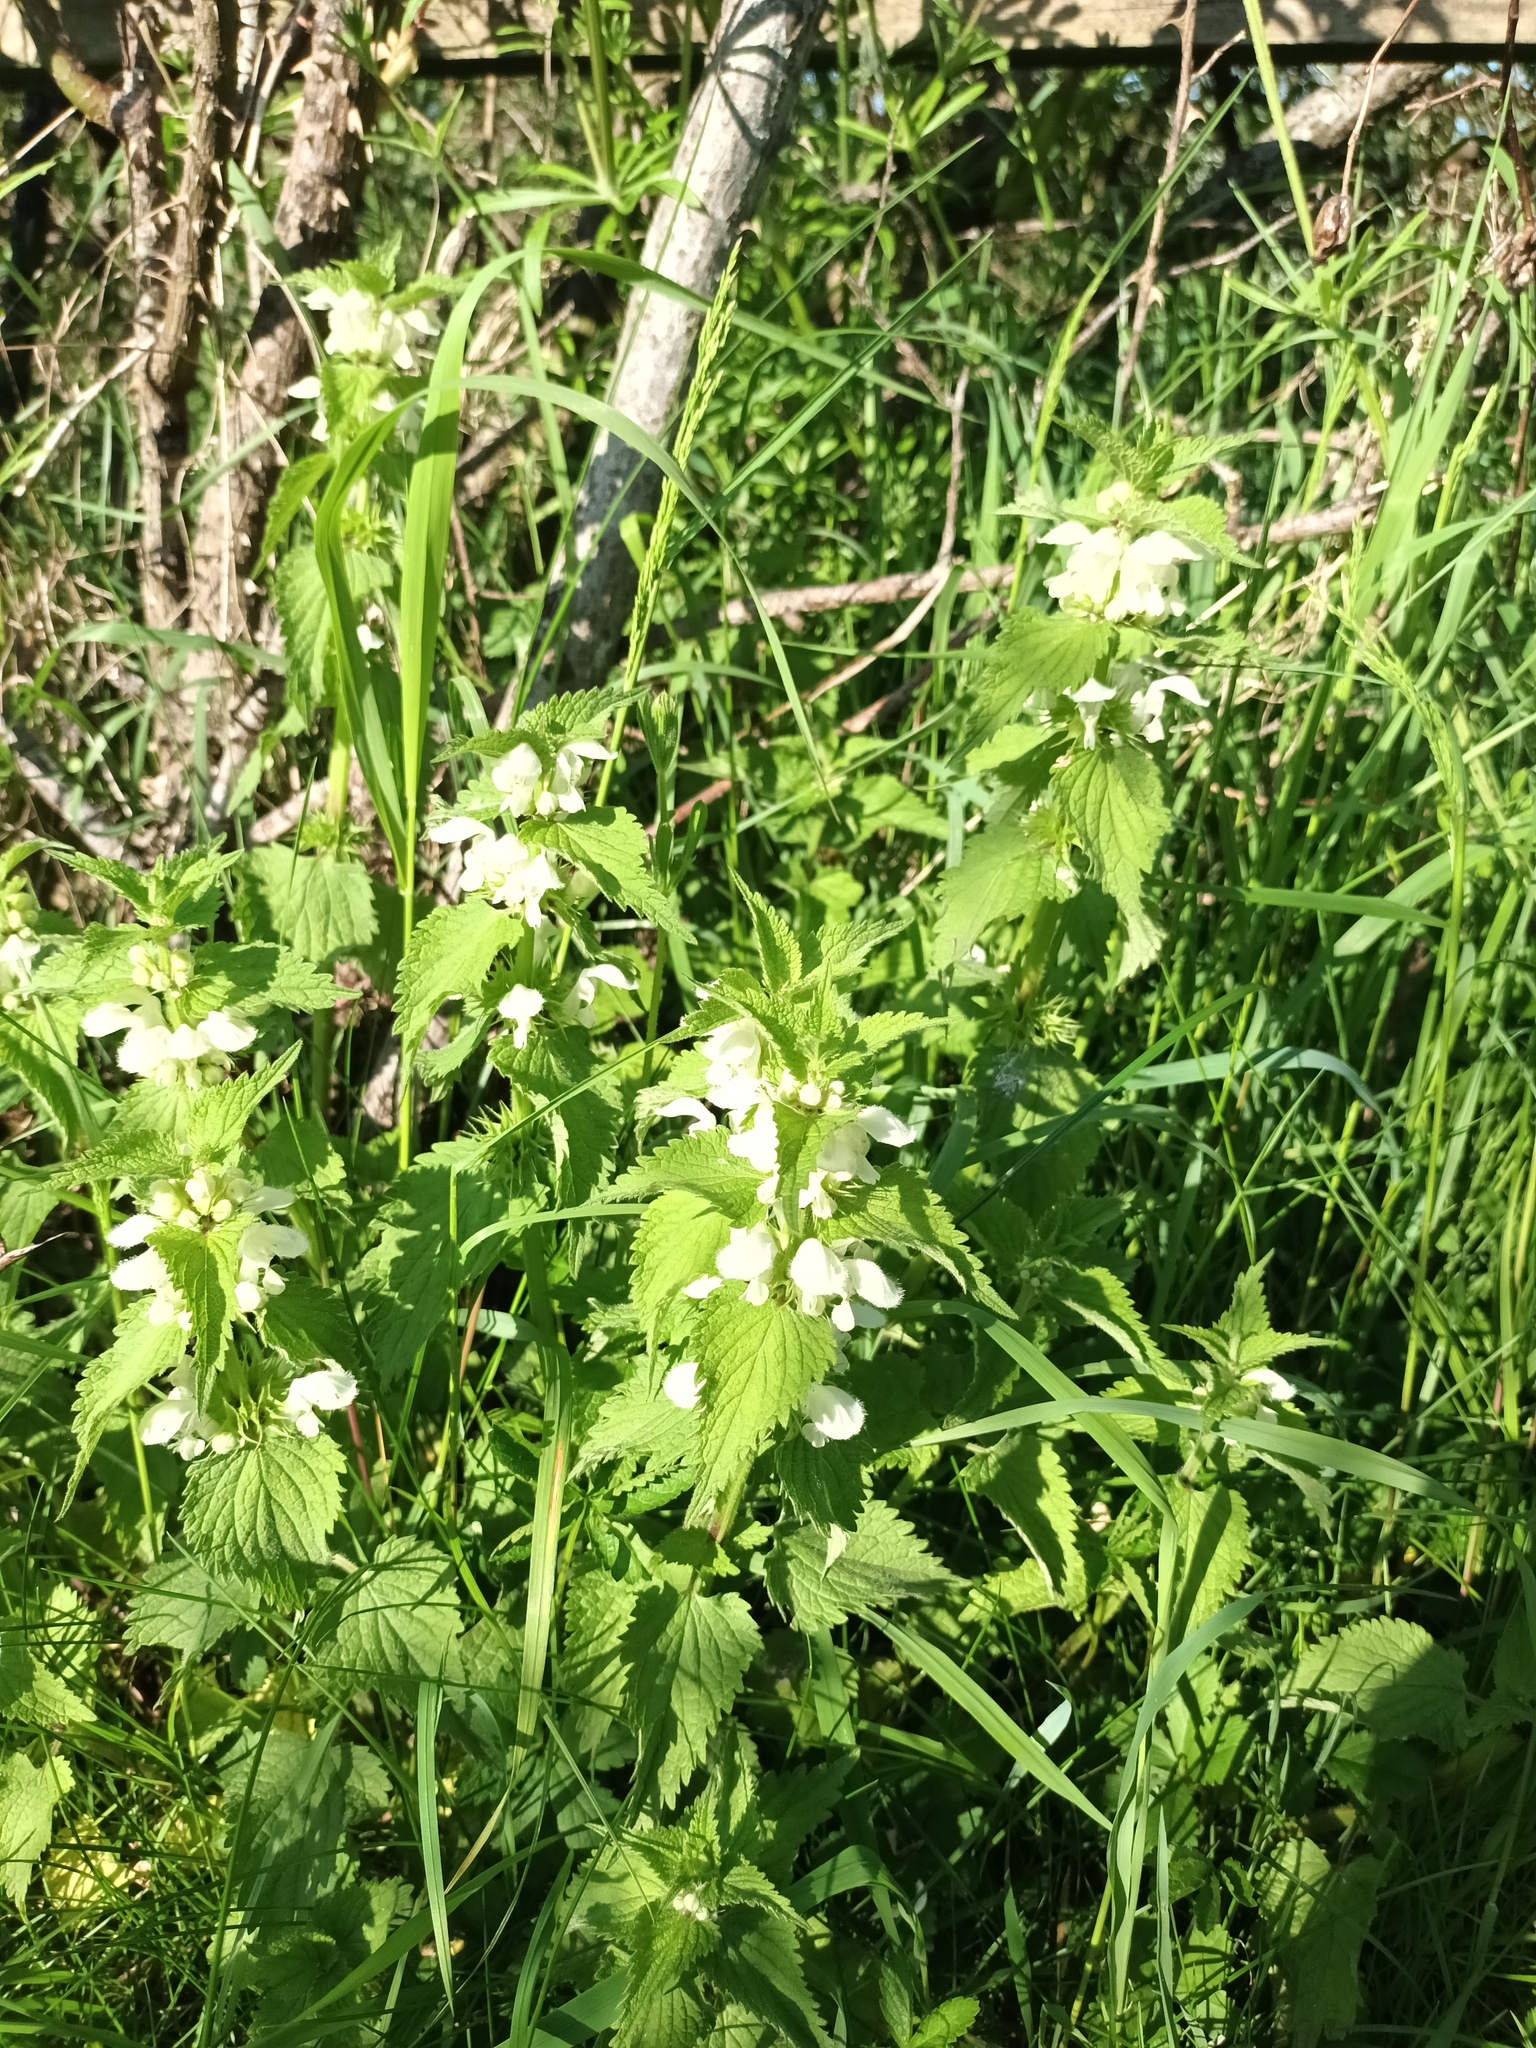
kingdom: Plantae
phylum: Tracheophyta
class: Magnoliopsida
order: Lamiales
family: Lamiaceae
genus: Lamium
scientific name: Lamium album
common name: White dead-nettle
